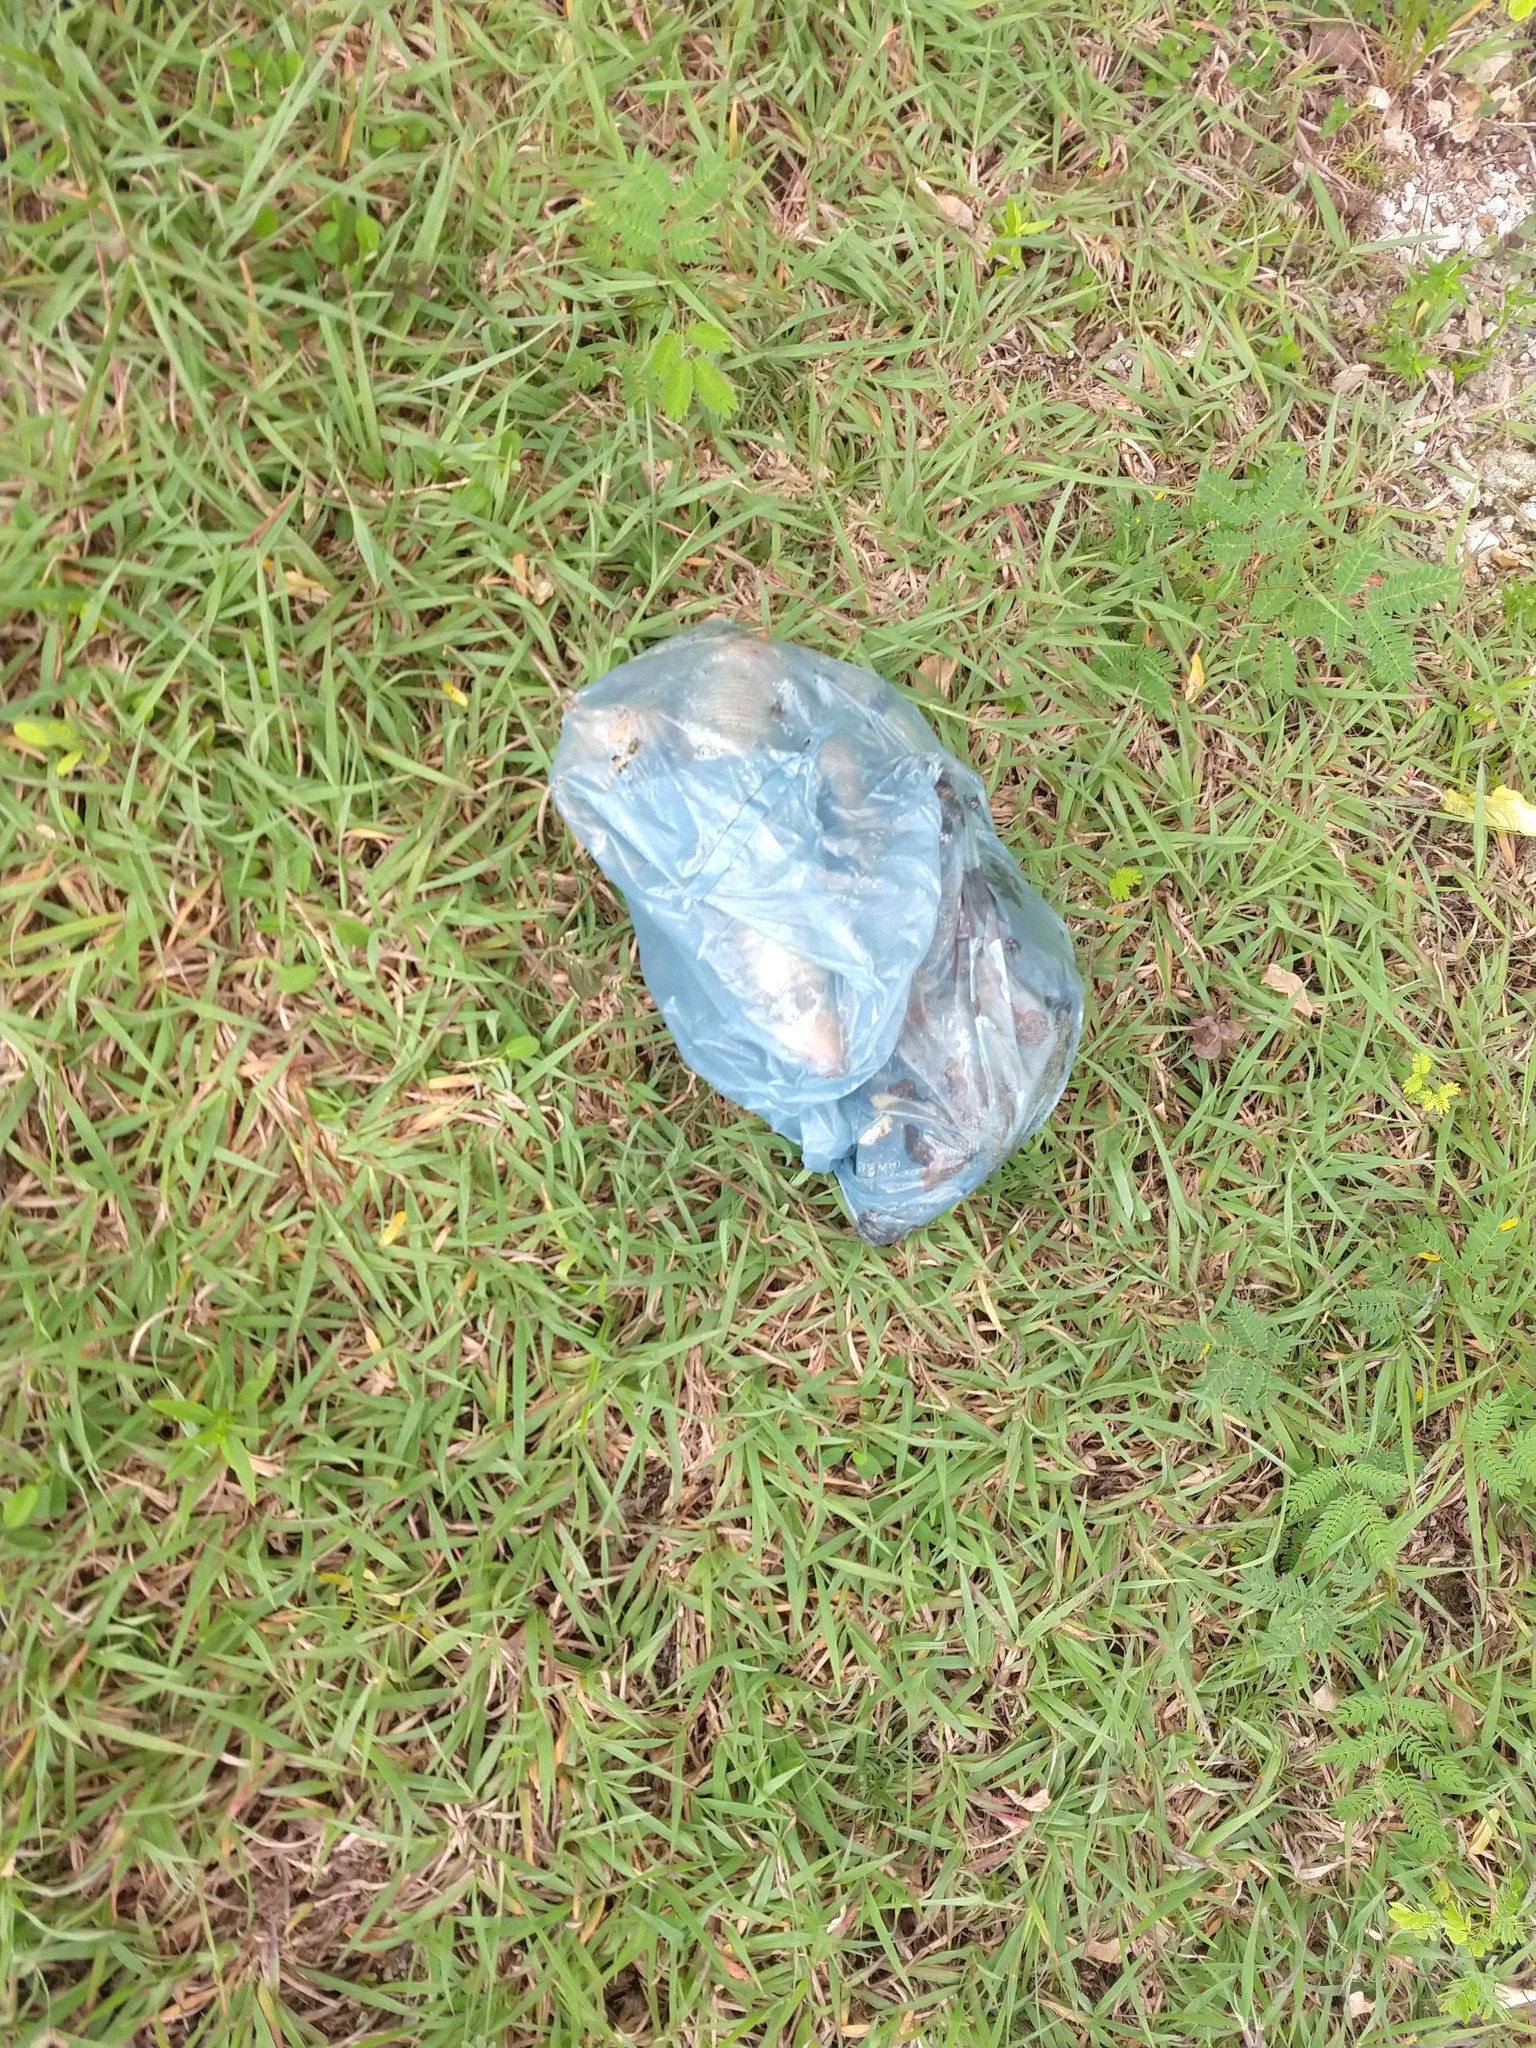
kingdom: Animalia
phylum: Chordata
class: Squamata
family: Iguanidae
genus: Ctenosaura
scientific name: Ctenosaura similis
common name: Black spiny-tailed iguana
